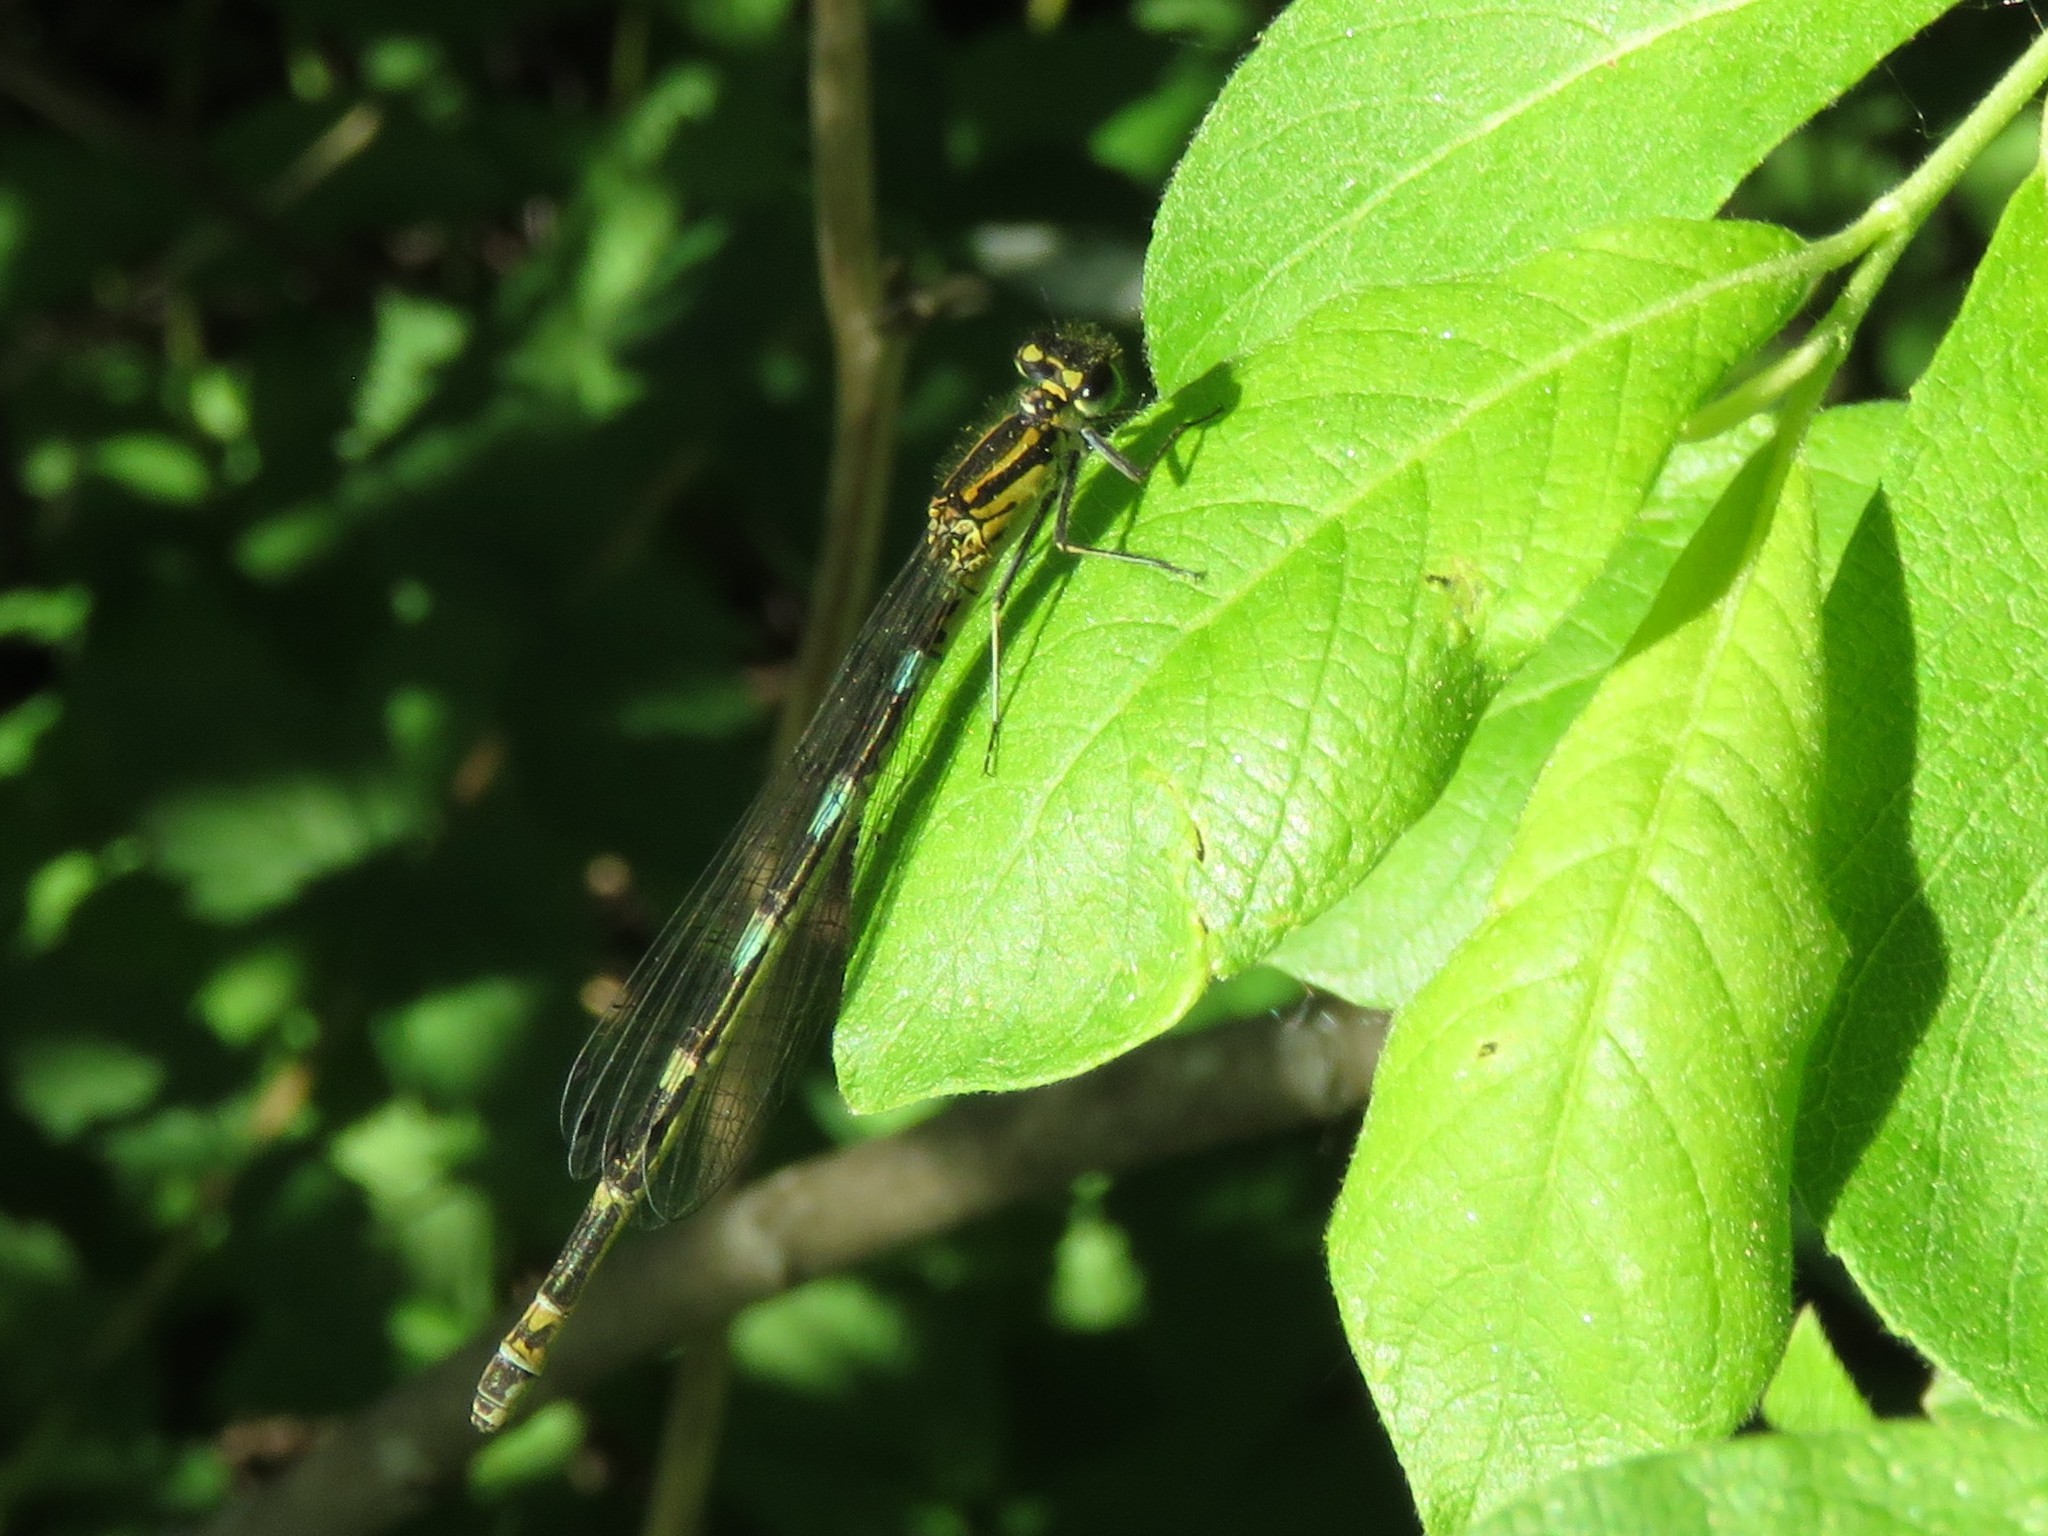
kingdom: Animalia
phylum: Arthropoda
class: Insecta
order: Odonata
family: Coenagrionidae
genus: Coenagrion
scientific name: Coenagrion pulchellum
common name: Variable bluet
